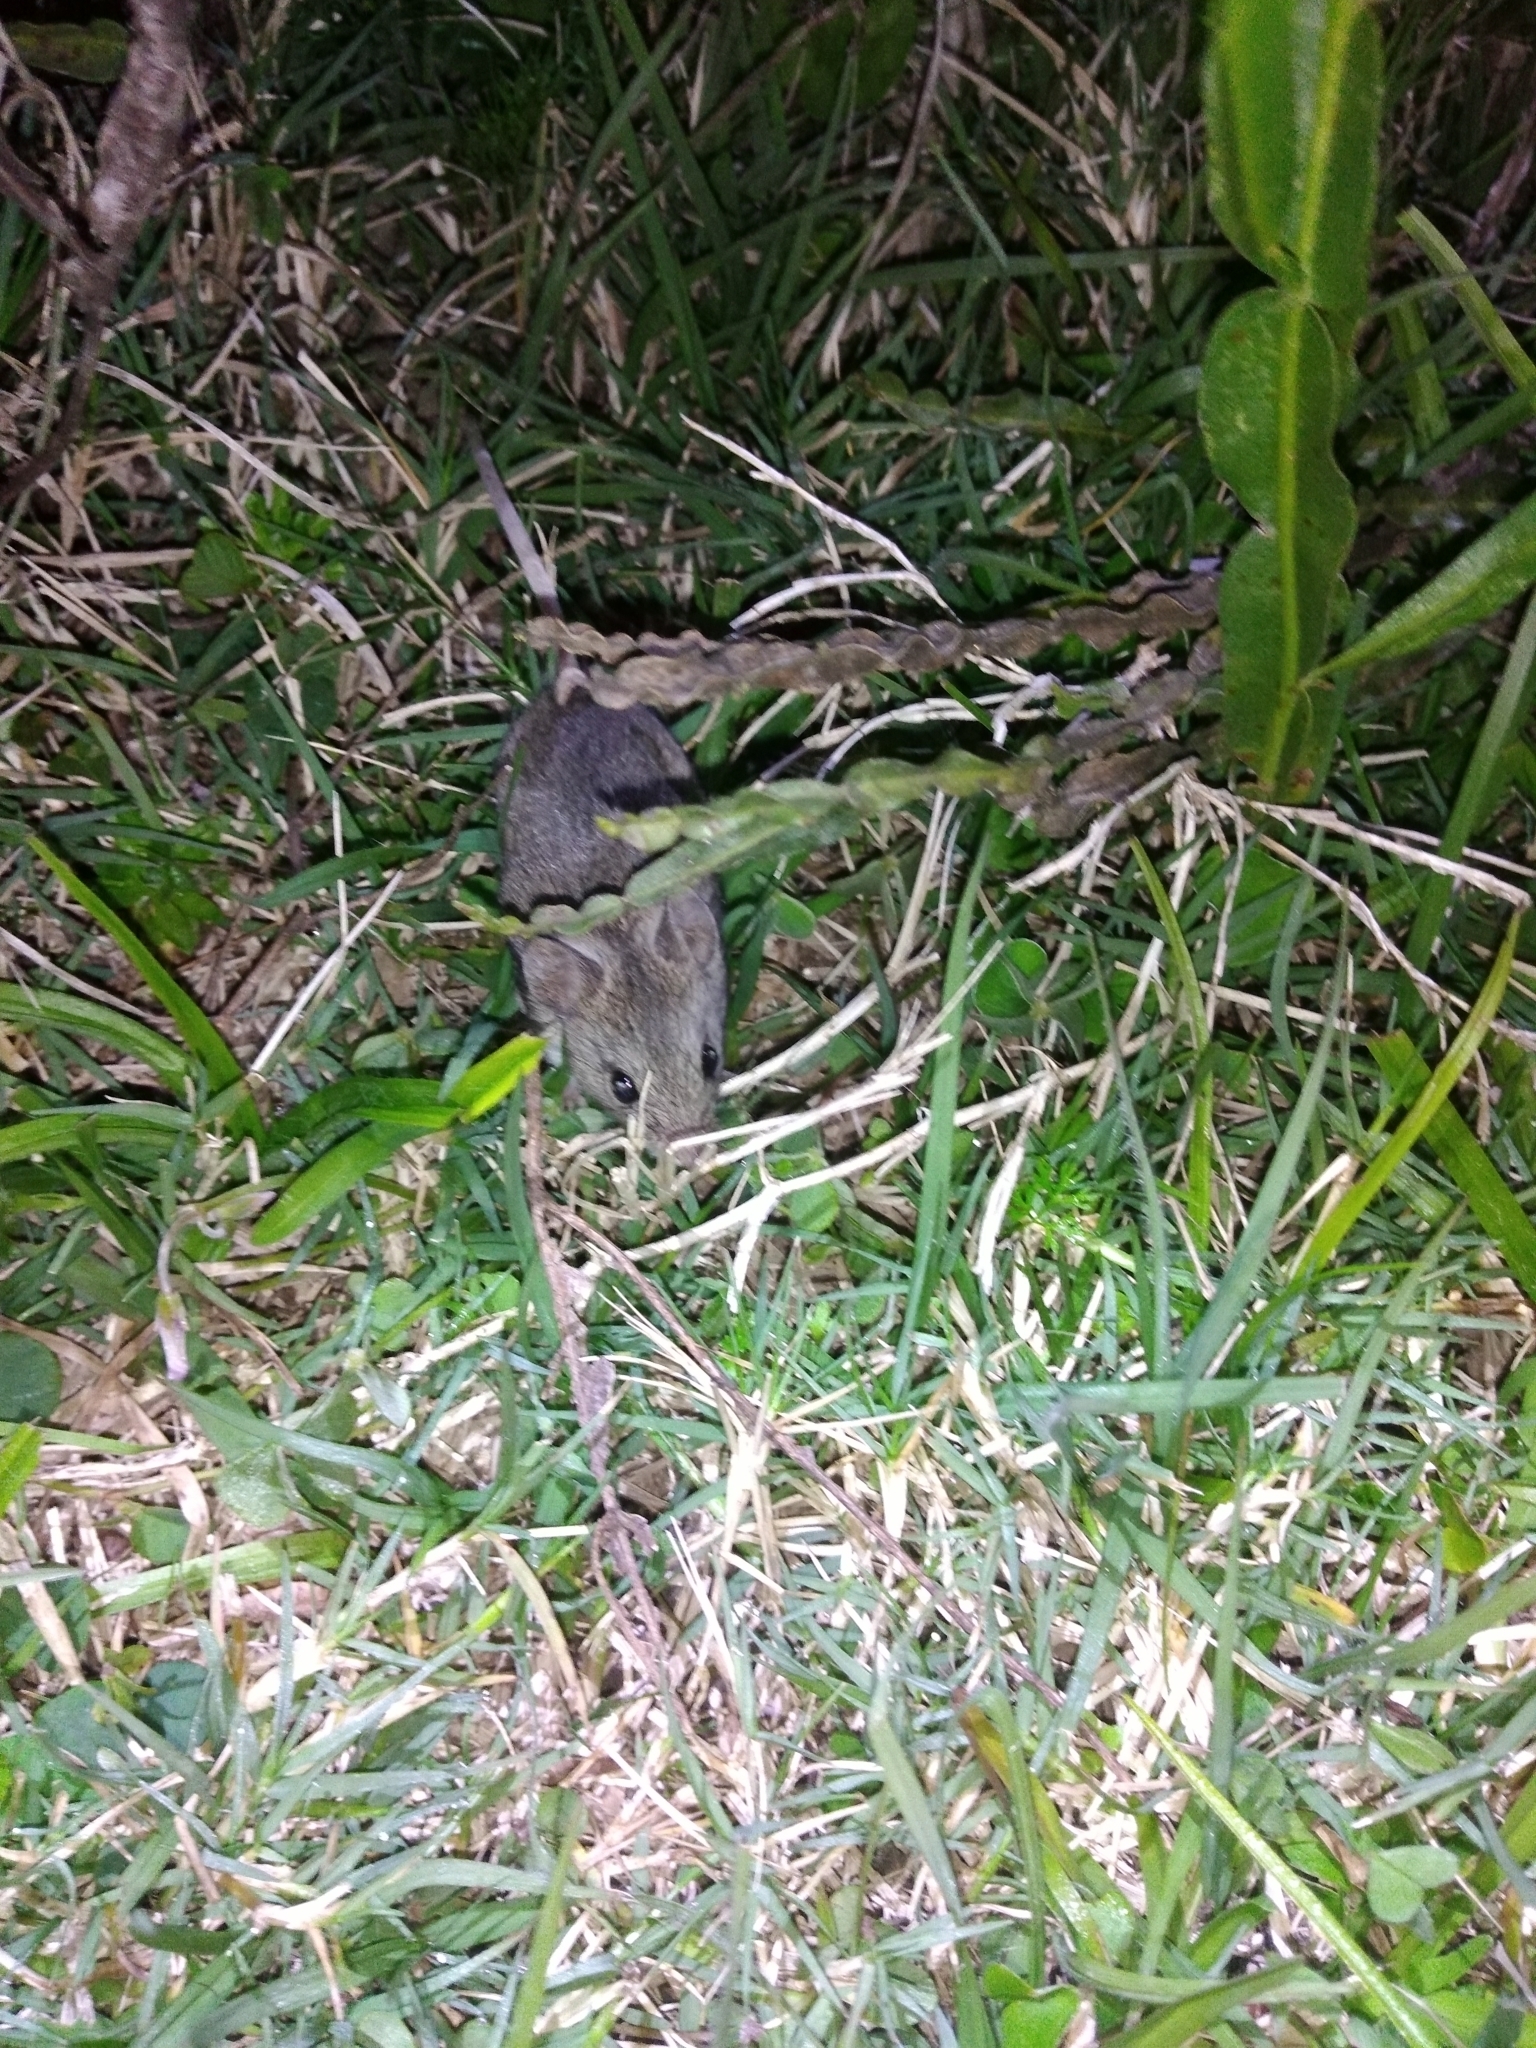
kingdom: Animalia
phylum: Chordata
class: Mammalia
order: Rodentia
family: Cricetidae
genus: Reithrodon
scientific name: Reithrodon typicus
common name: Naked-soled conyrat
